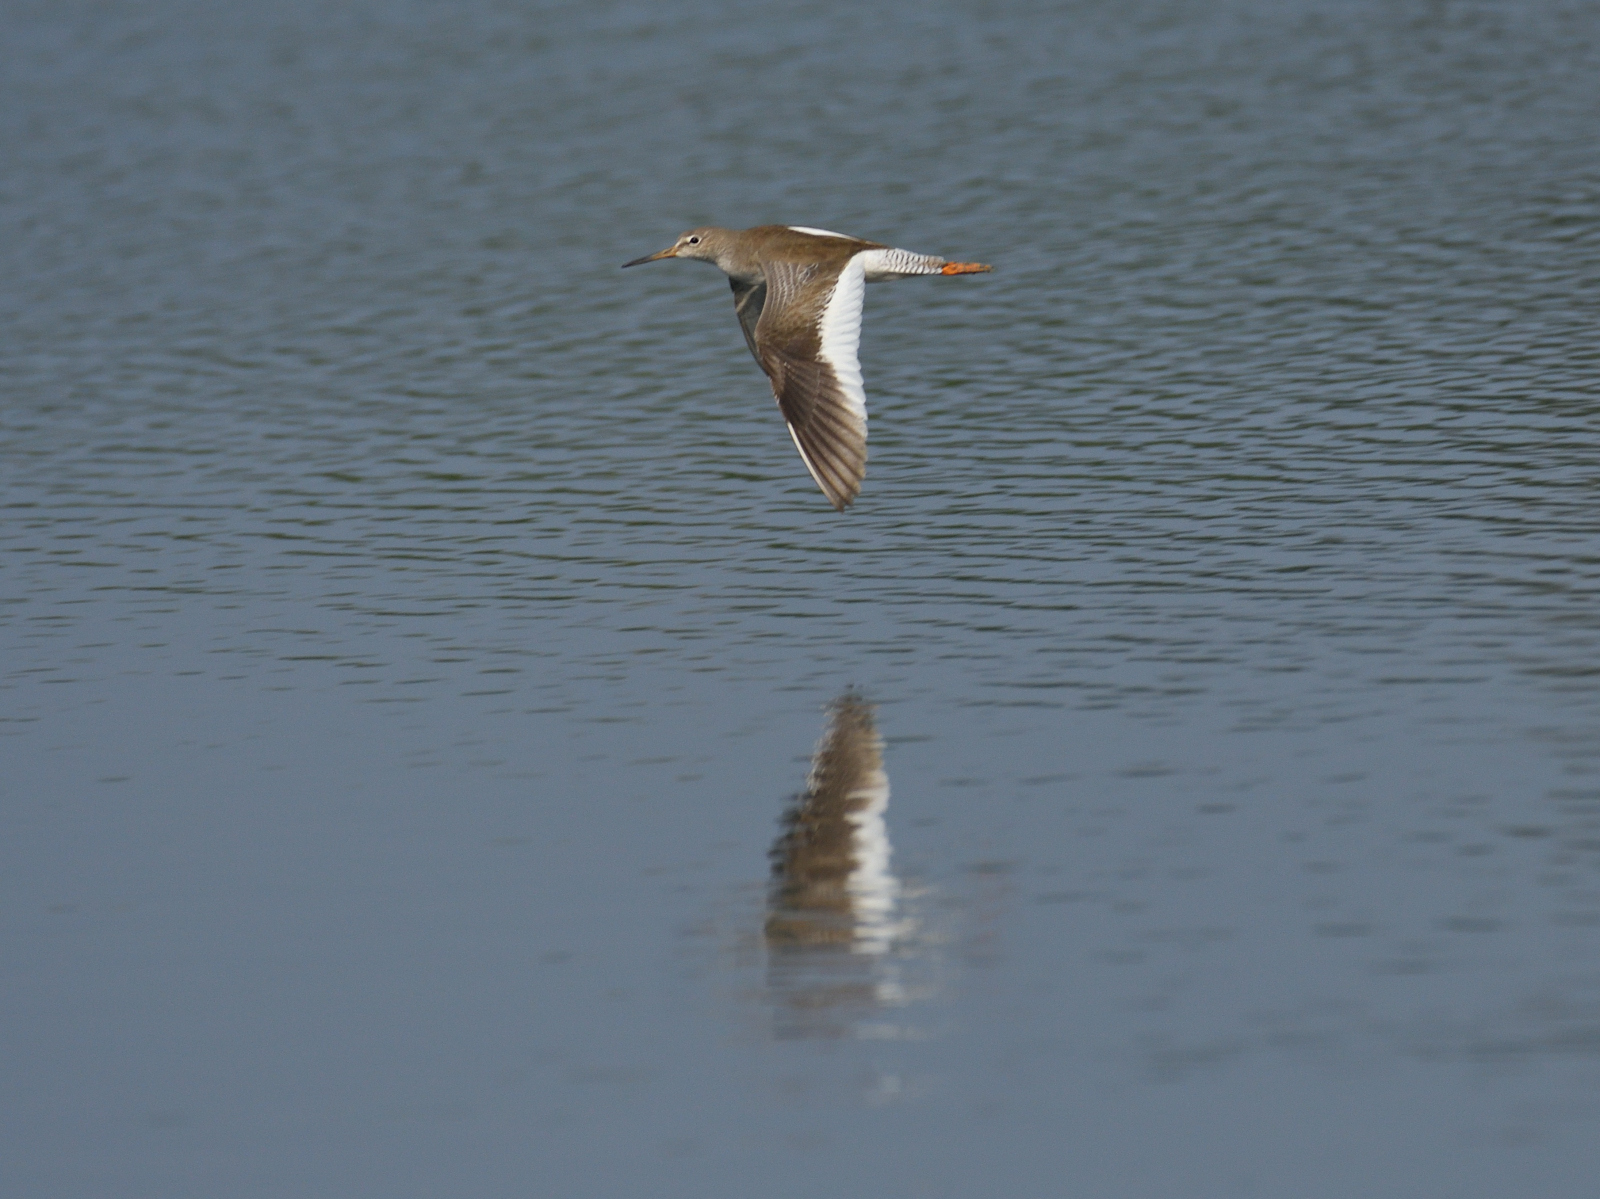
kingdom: Animalia
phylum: Chordata
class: Aves
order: Charadriiformes
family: Scolopacidae
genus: Tringa
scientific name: Tringa totanus
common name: Common redshank
